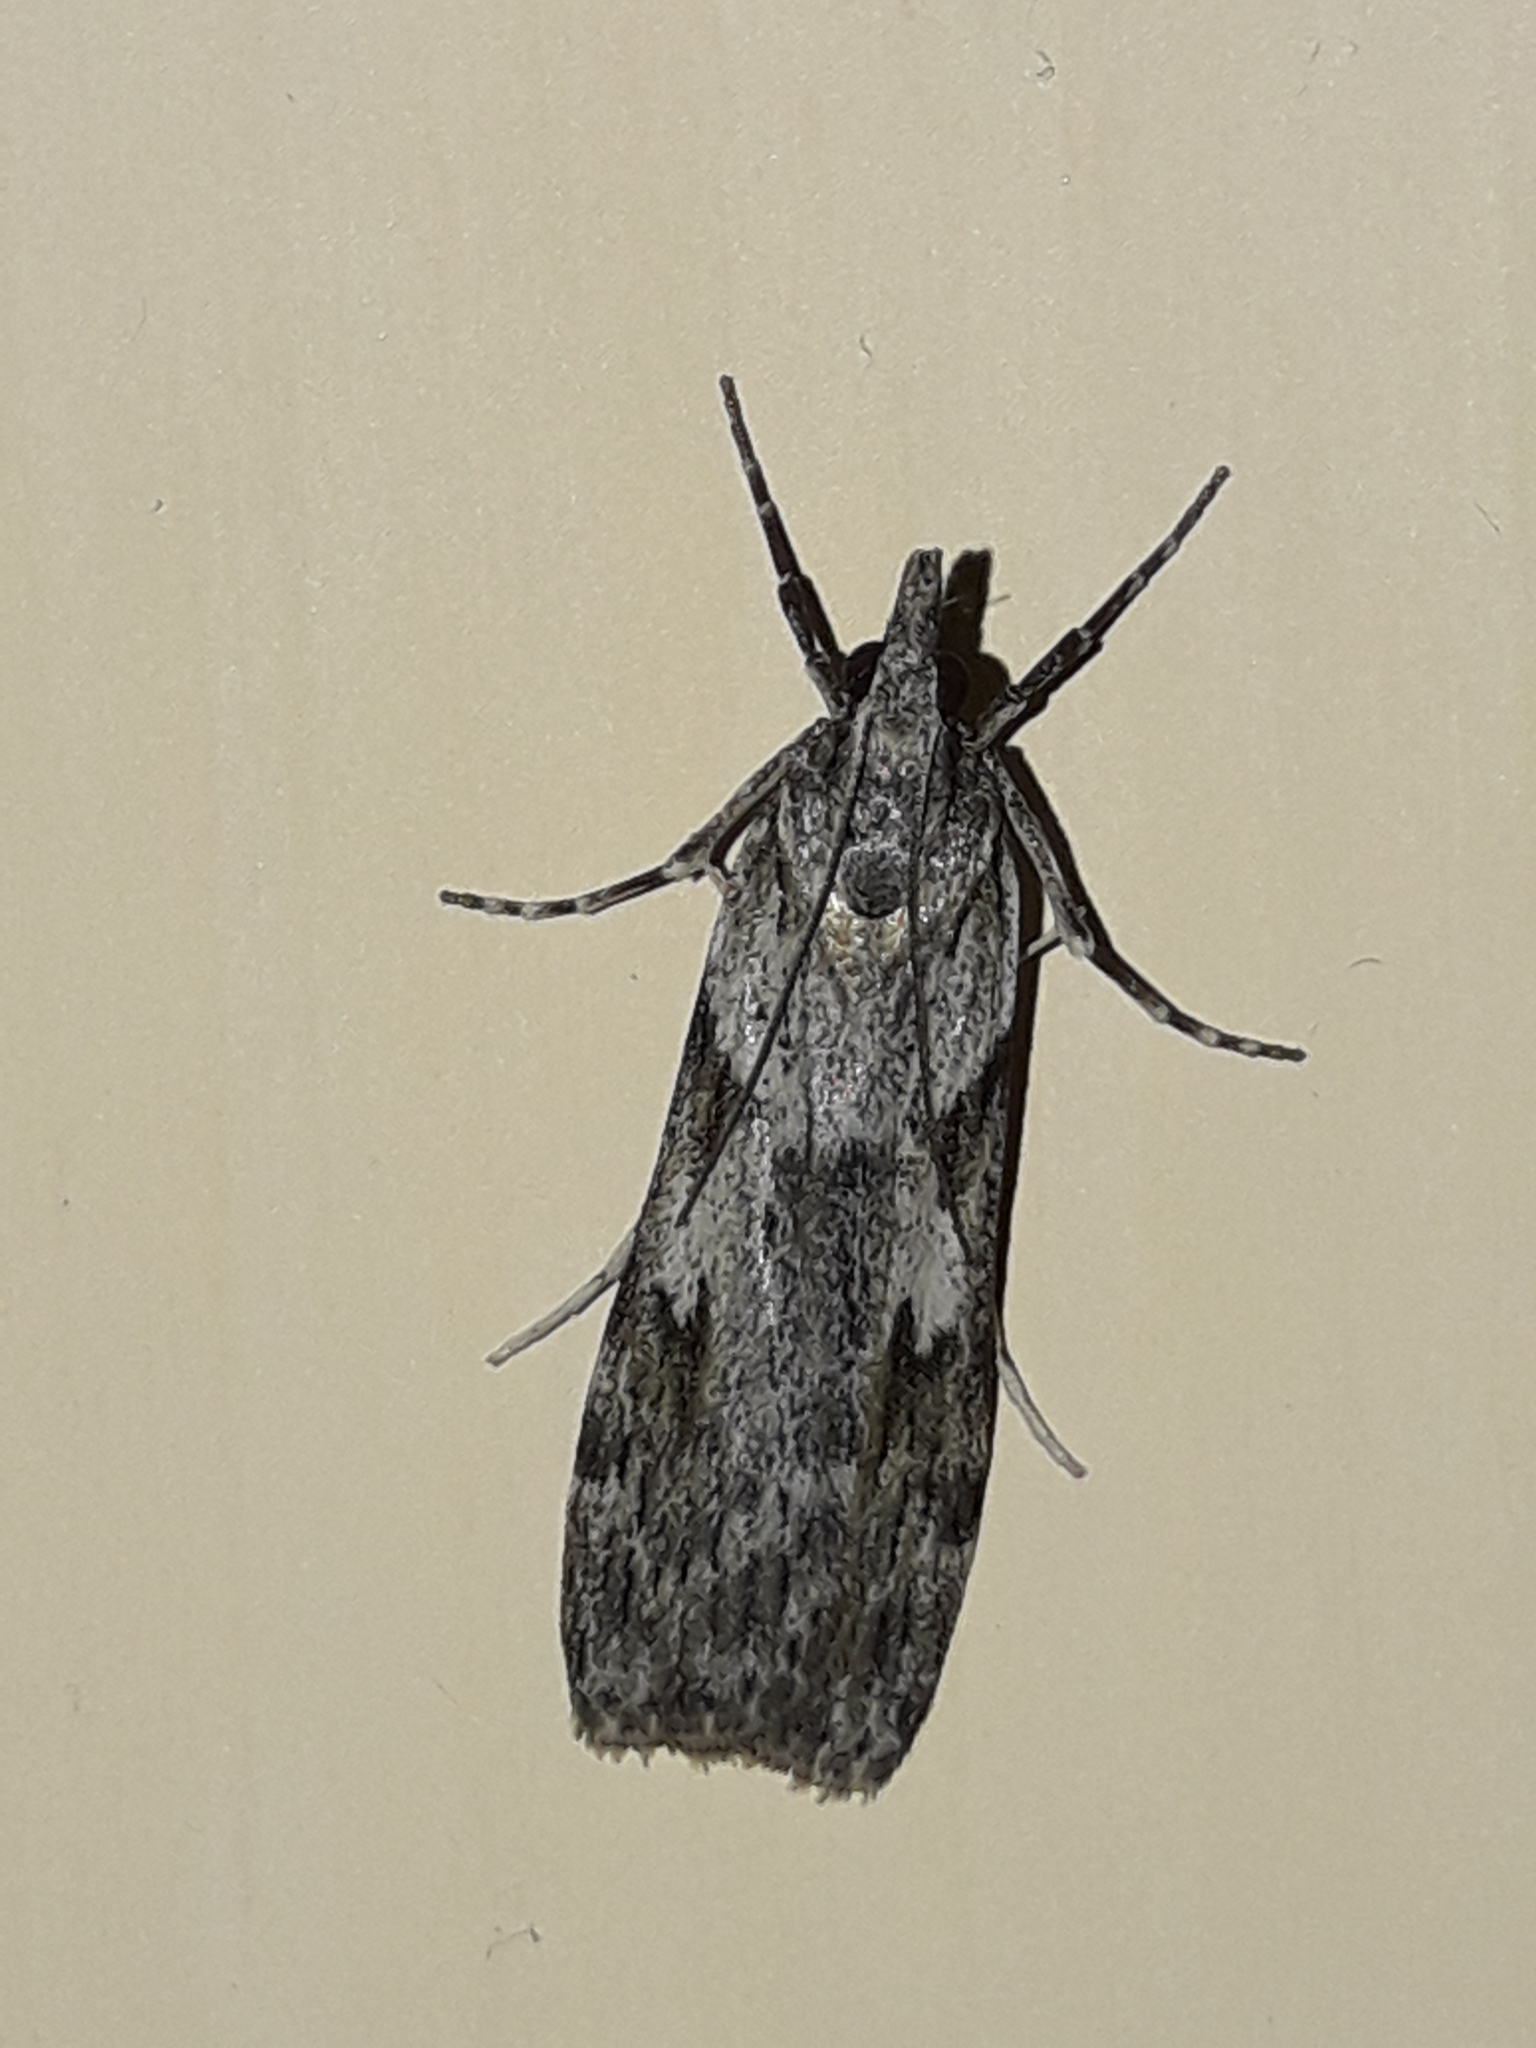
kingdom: Animalia
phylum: Arthropoda
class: Insecta
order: Lepidoptera
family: Crambidae
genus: Scoparia
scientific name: Scoparia halopis
